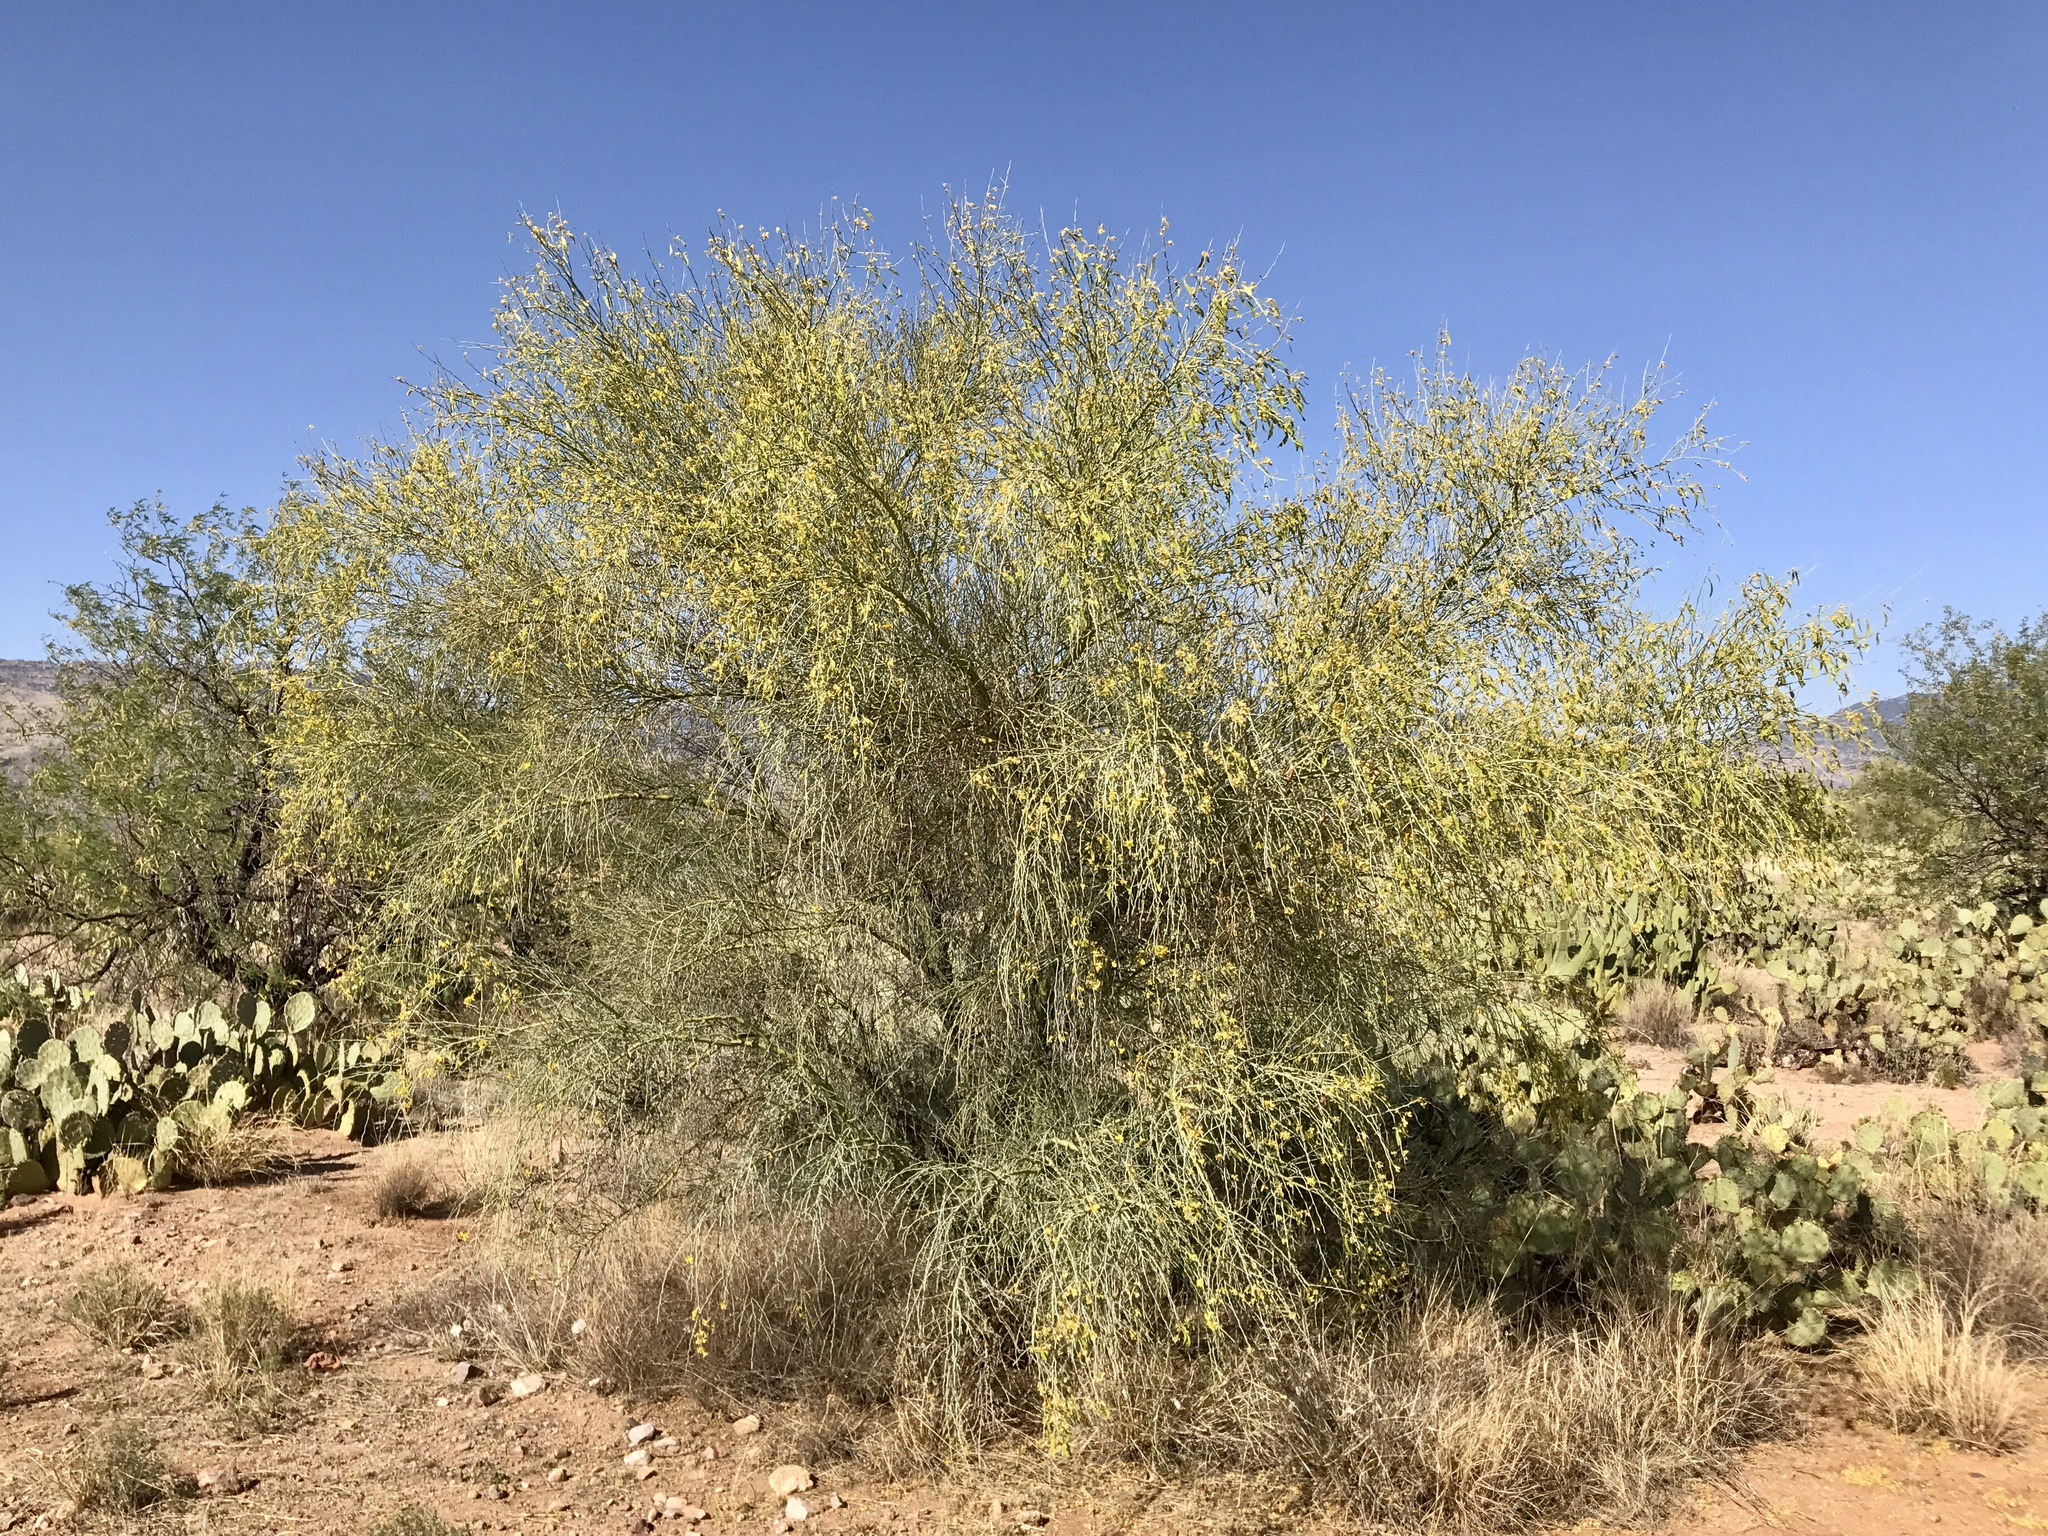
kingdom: Plantae
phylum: Tracheophyta
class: Magnoliopsida
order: Fabales
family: Fabaceae
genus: Parkinsonia
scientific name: Parkinsonia florida
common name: Blue paloverde
